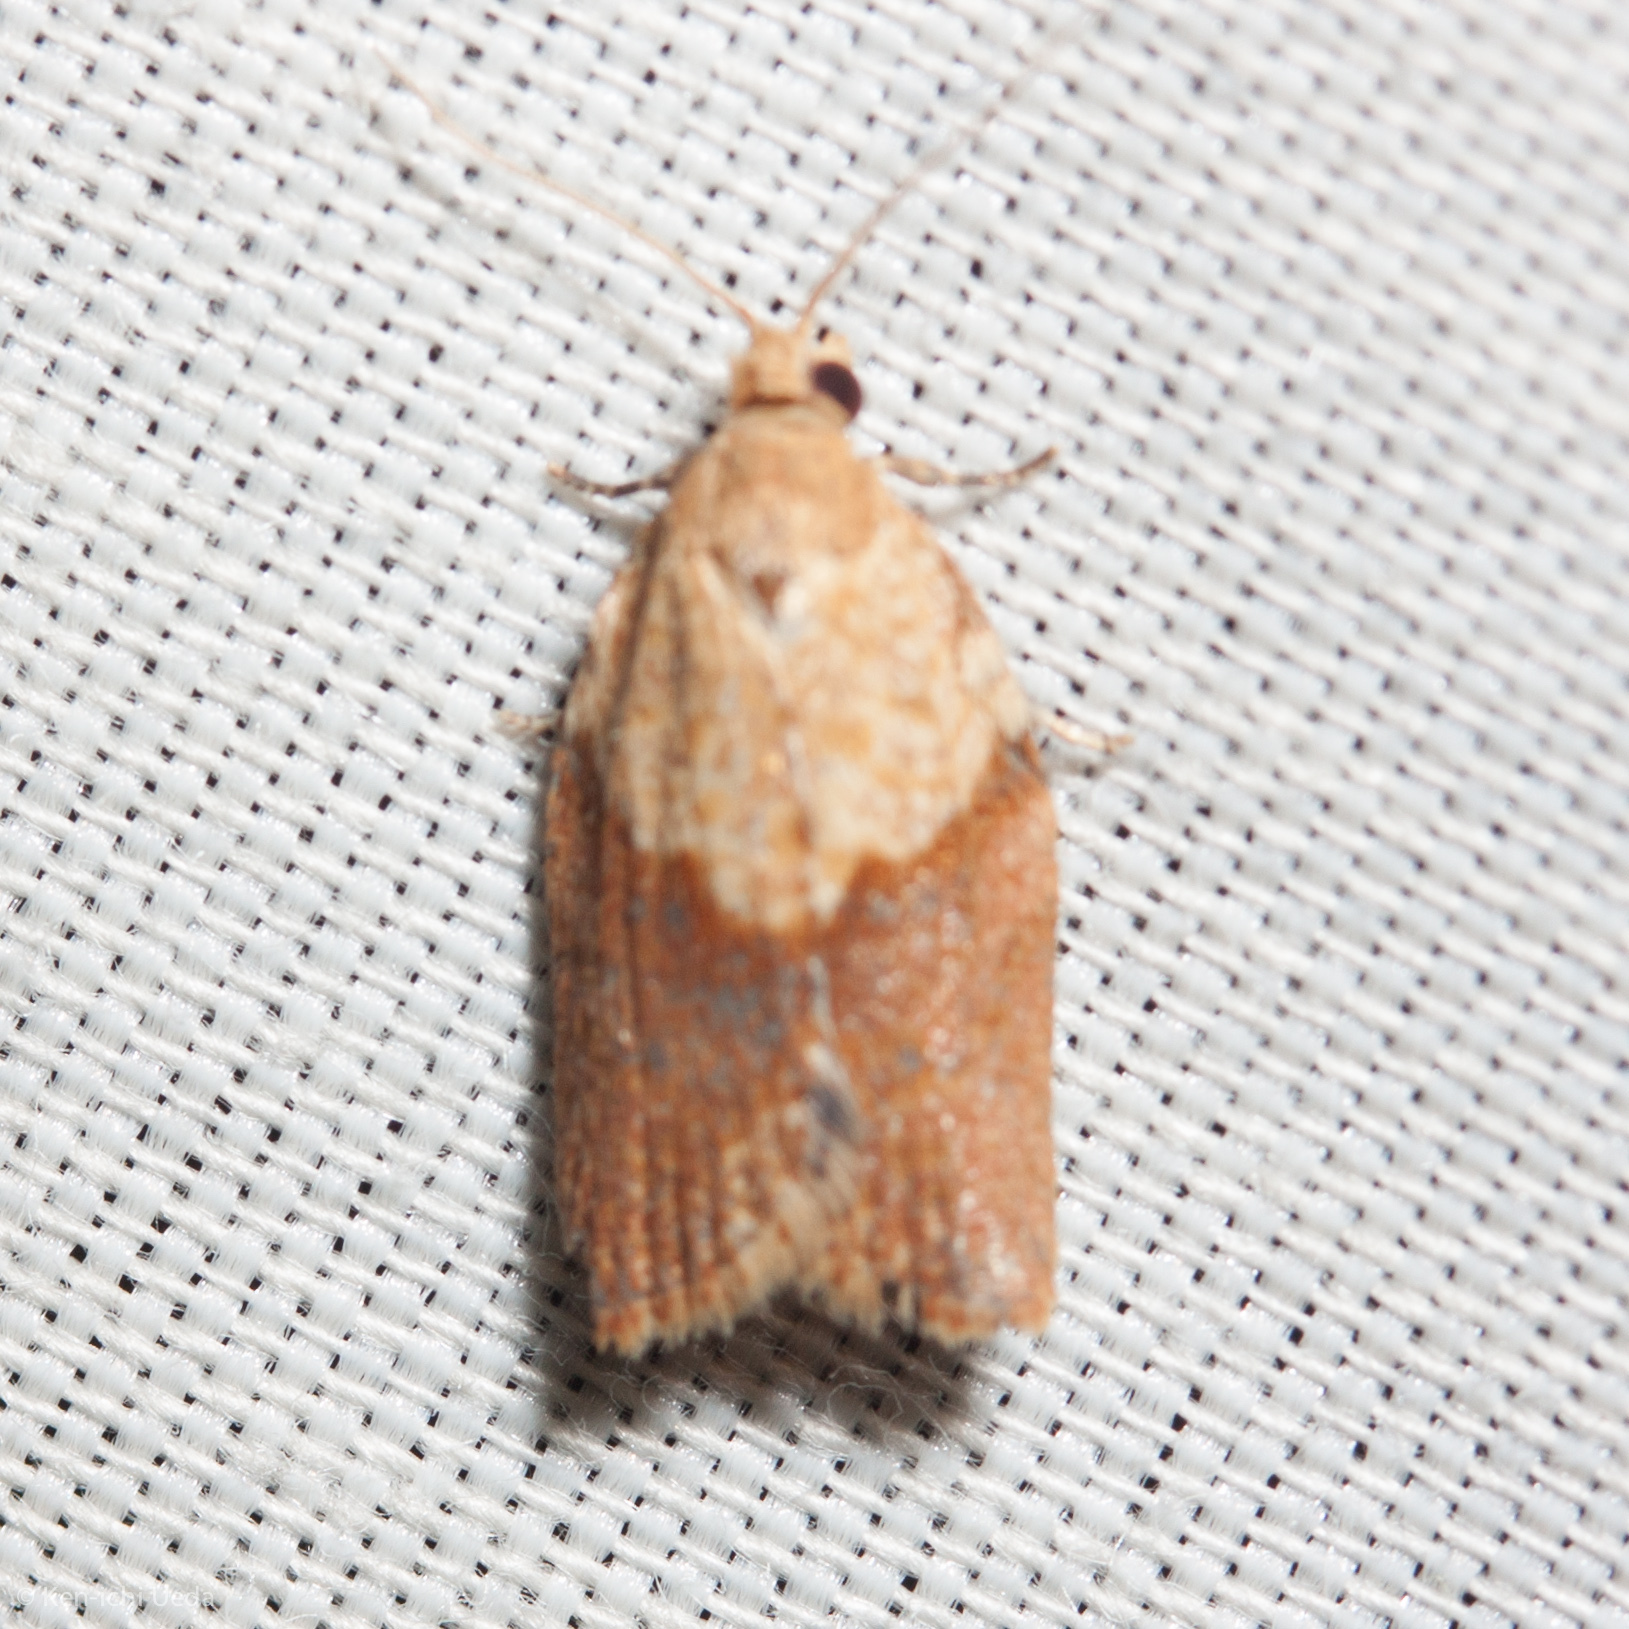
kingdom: Animalia
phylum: Arthropoda
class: Insecta
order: Lepidoptera
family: Tortricidae
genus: Epiphyas
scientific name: Epiphyas postvittana
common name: Light brown apple moth
